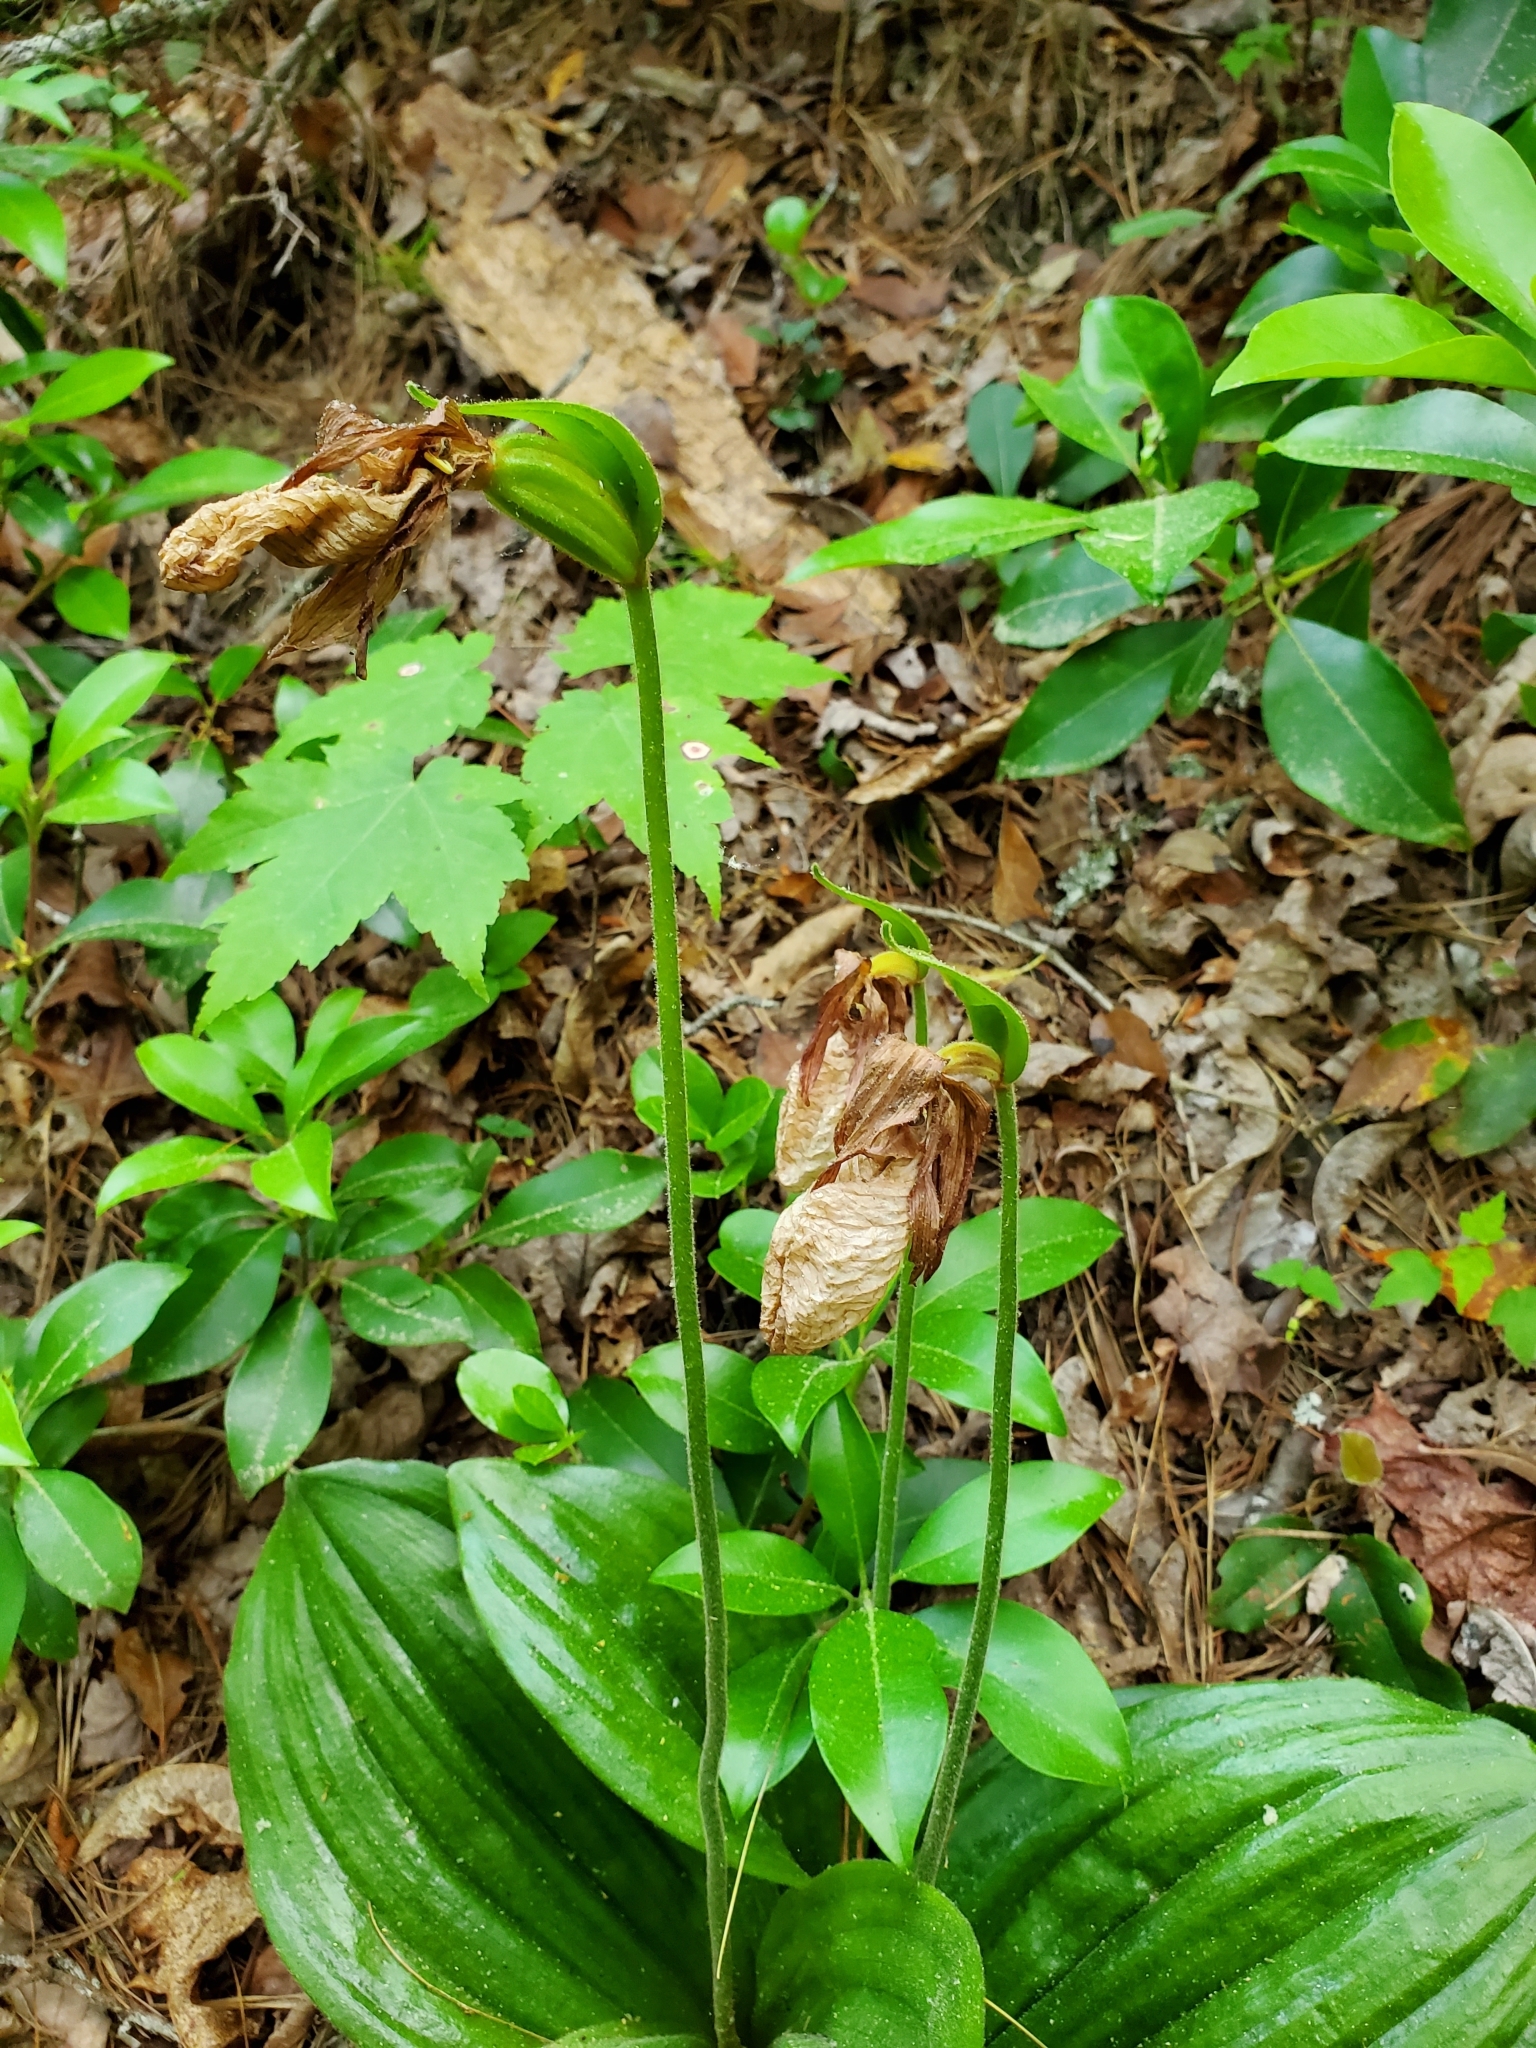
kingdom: Plantae
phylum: Tracheophyta
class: Liliopsida
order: Asparagales
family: Orchidaceae
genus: Cypripedium
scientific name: Cypripedium acaule
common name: Pink lady's-slipper
